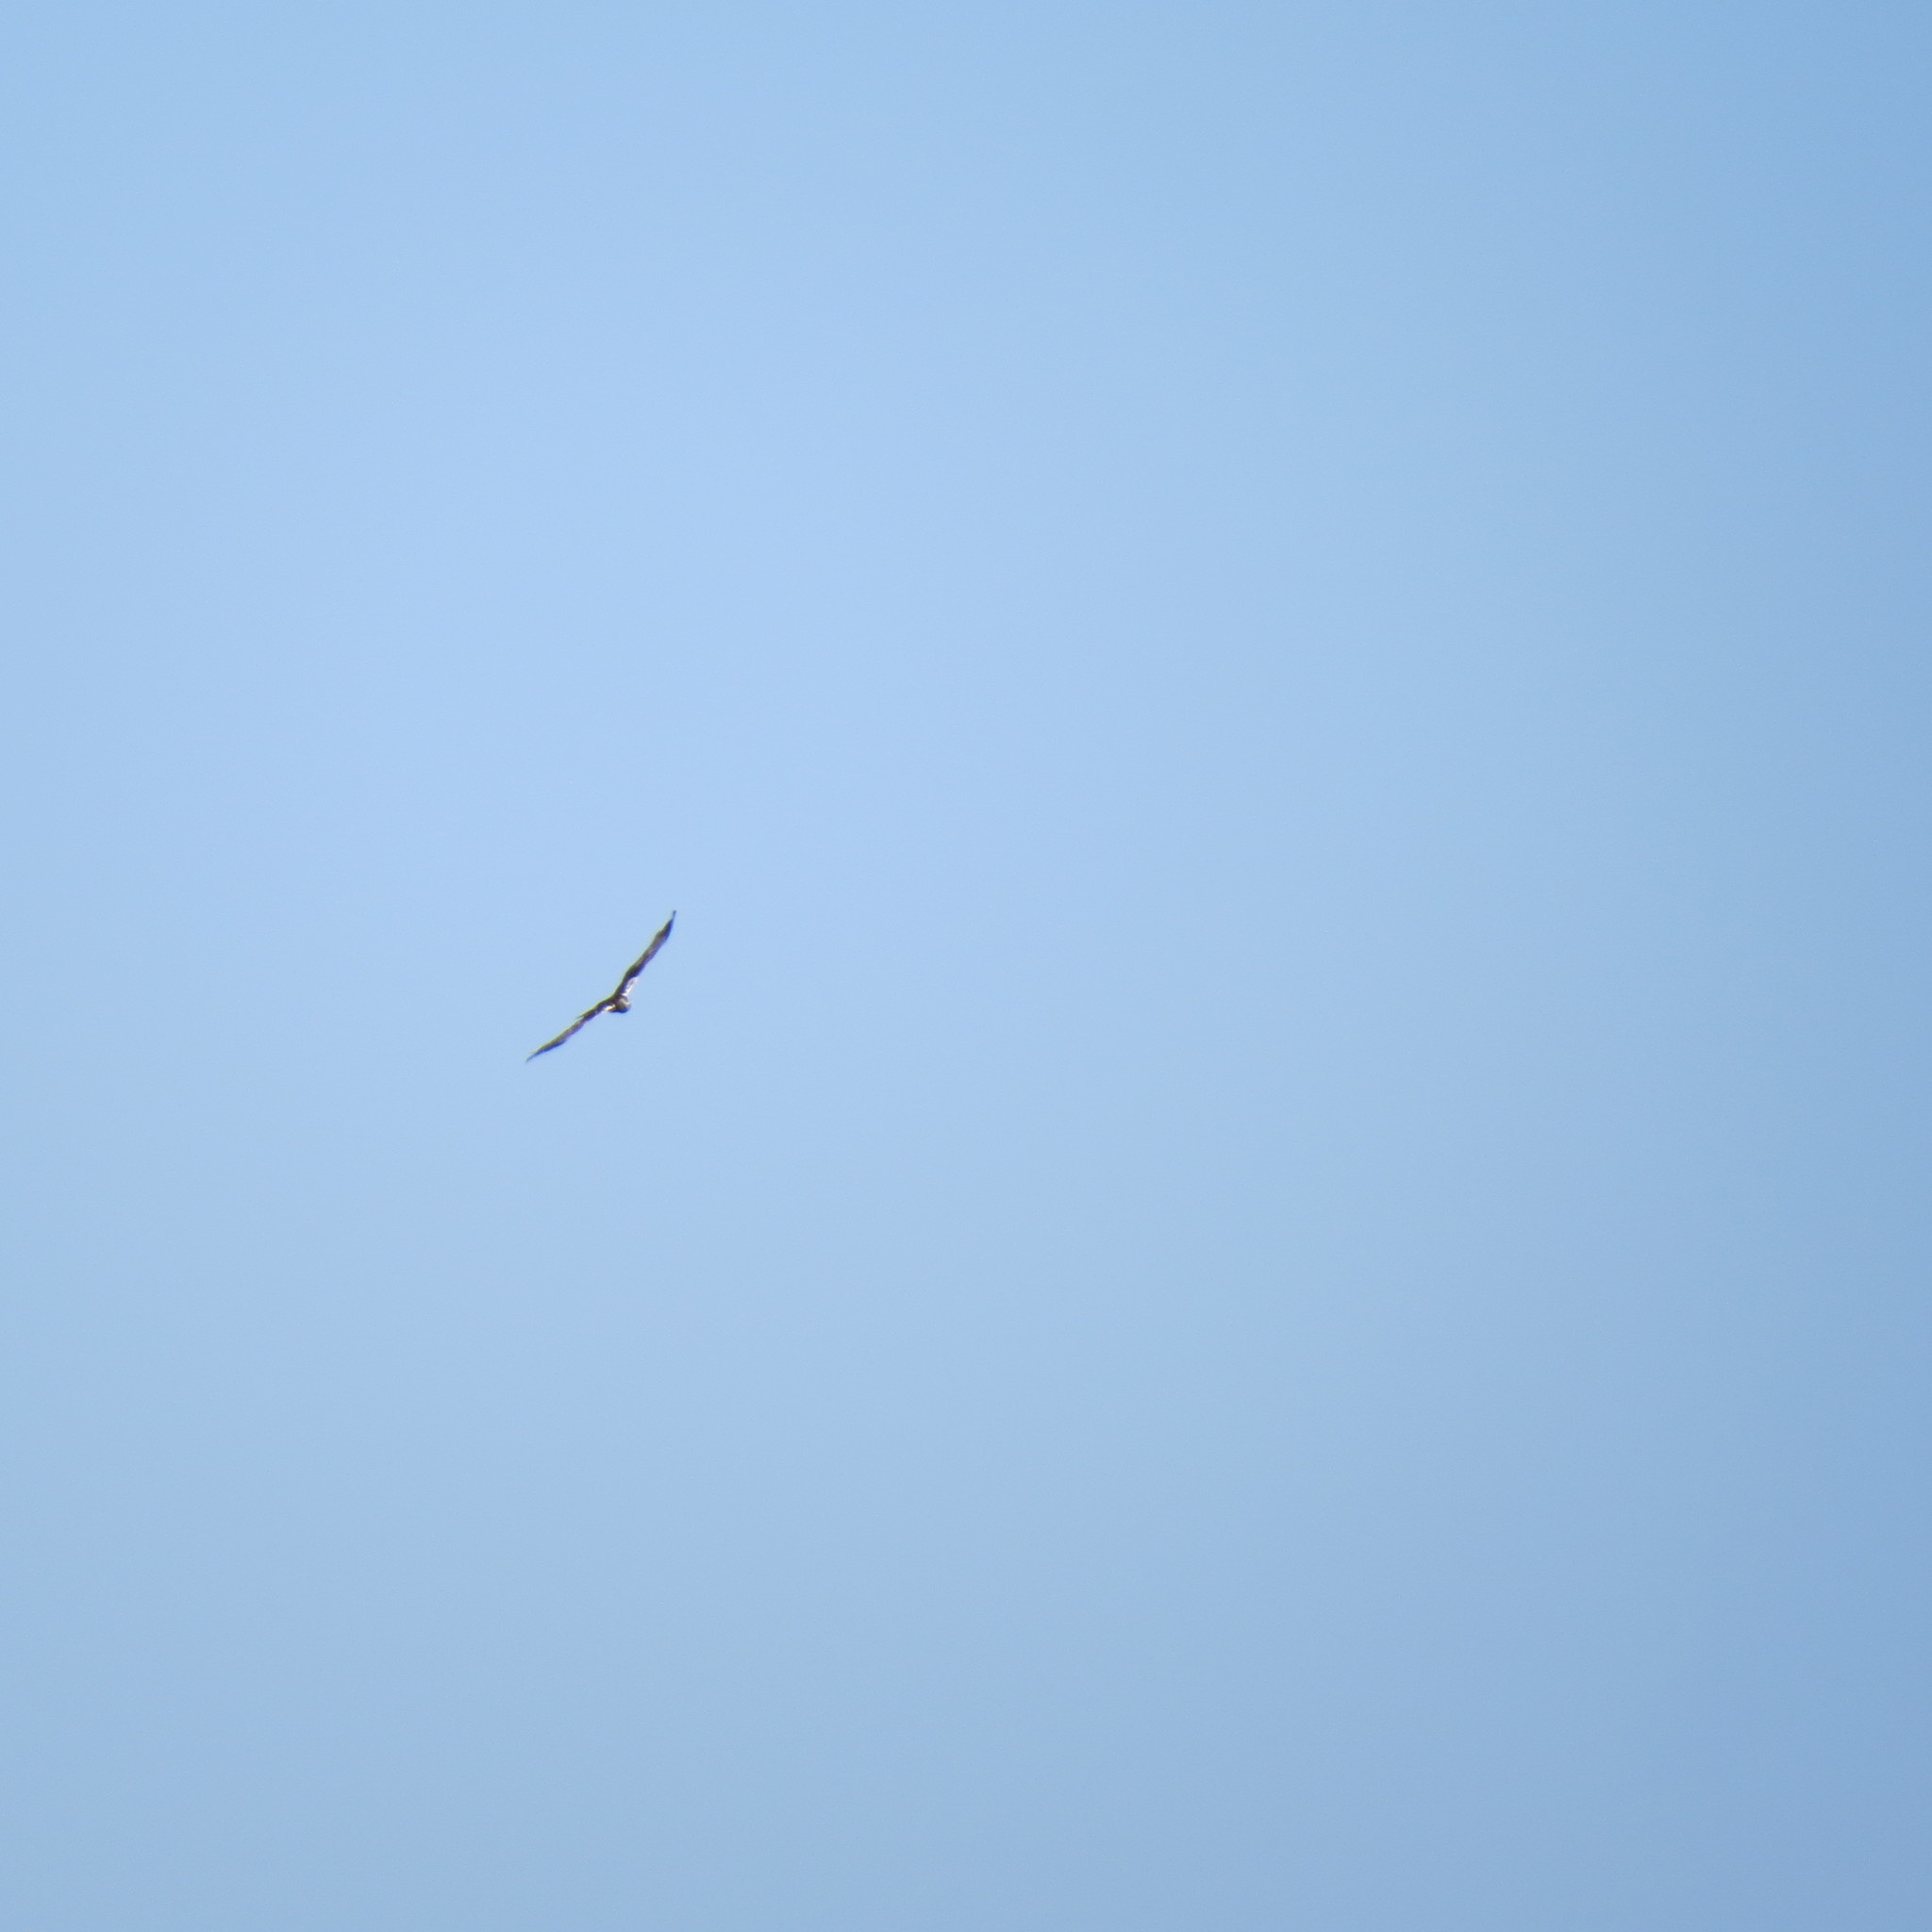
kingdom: Animalia
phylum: Chordata
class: Aves
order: Accipitriformes
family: Accipitridae
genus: Circus
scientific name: Circus aeruginosus
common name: Western marsh harrier
